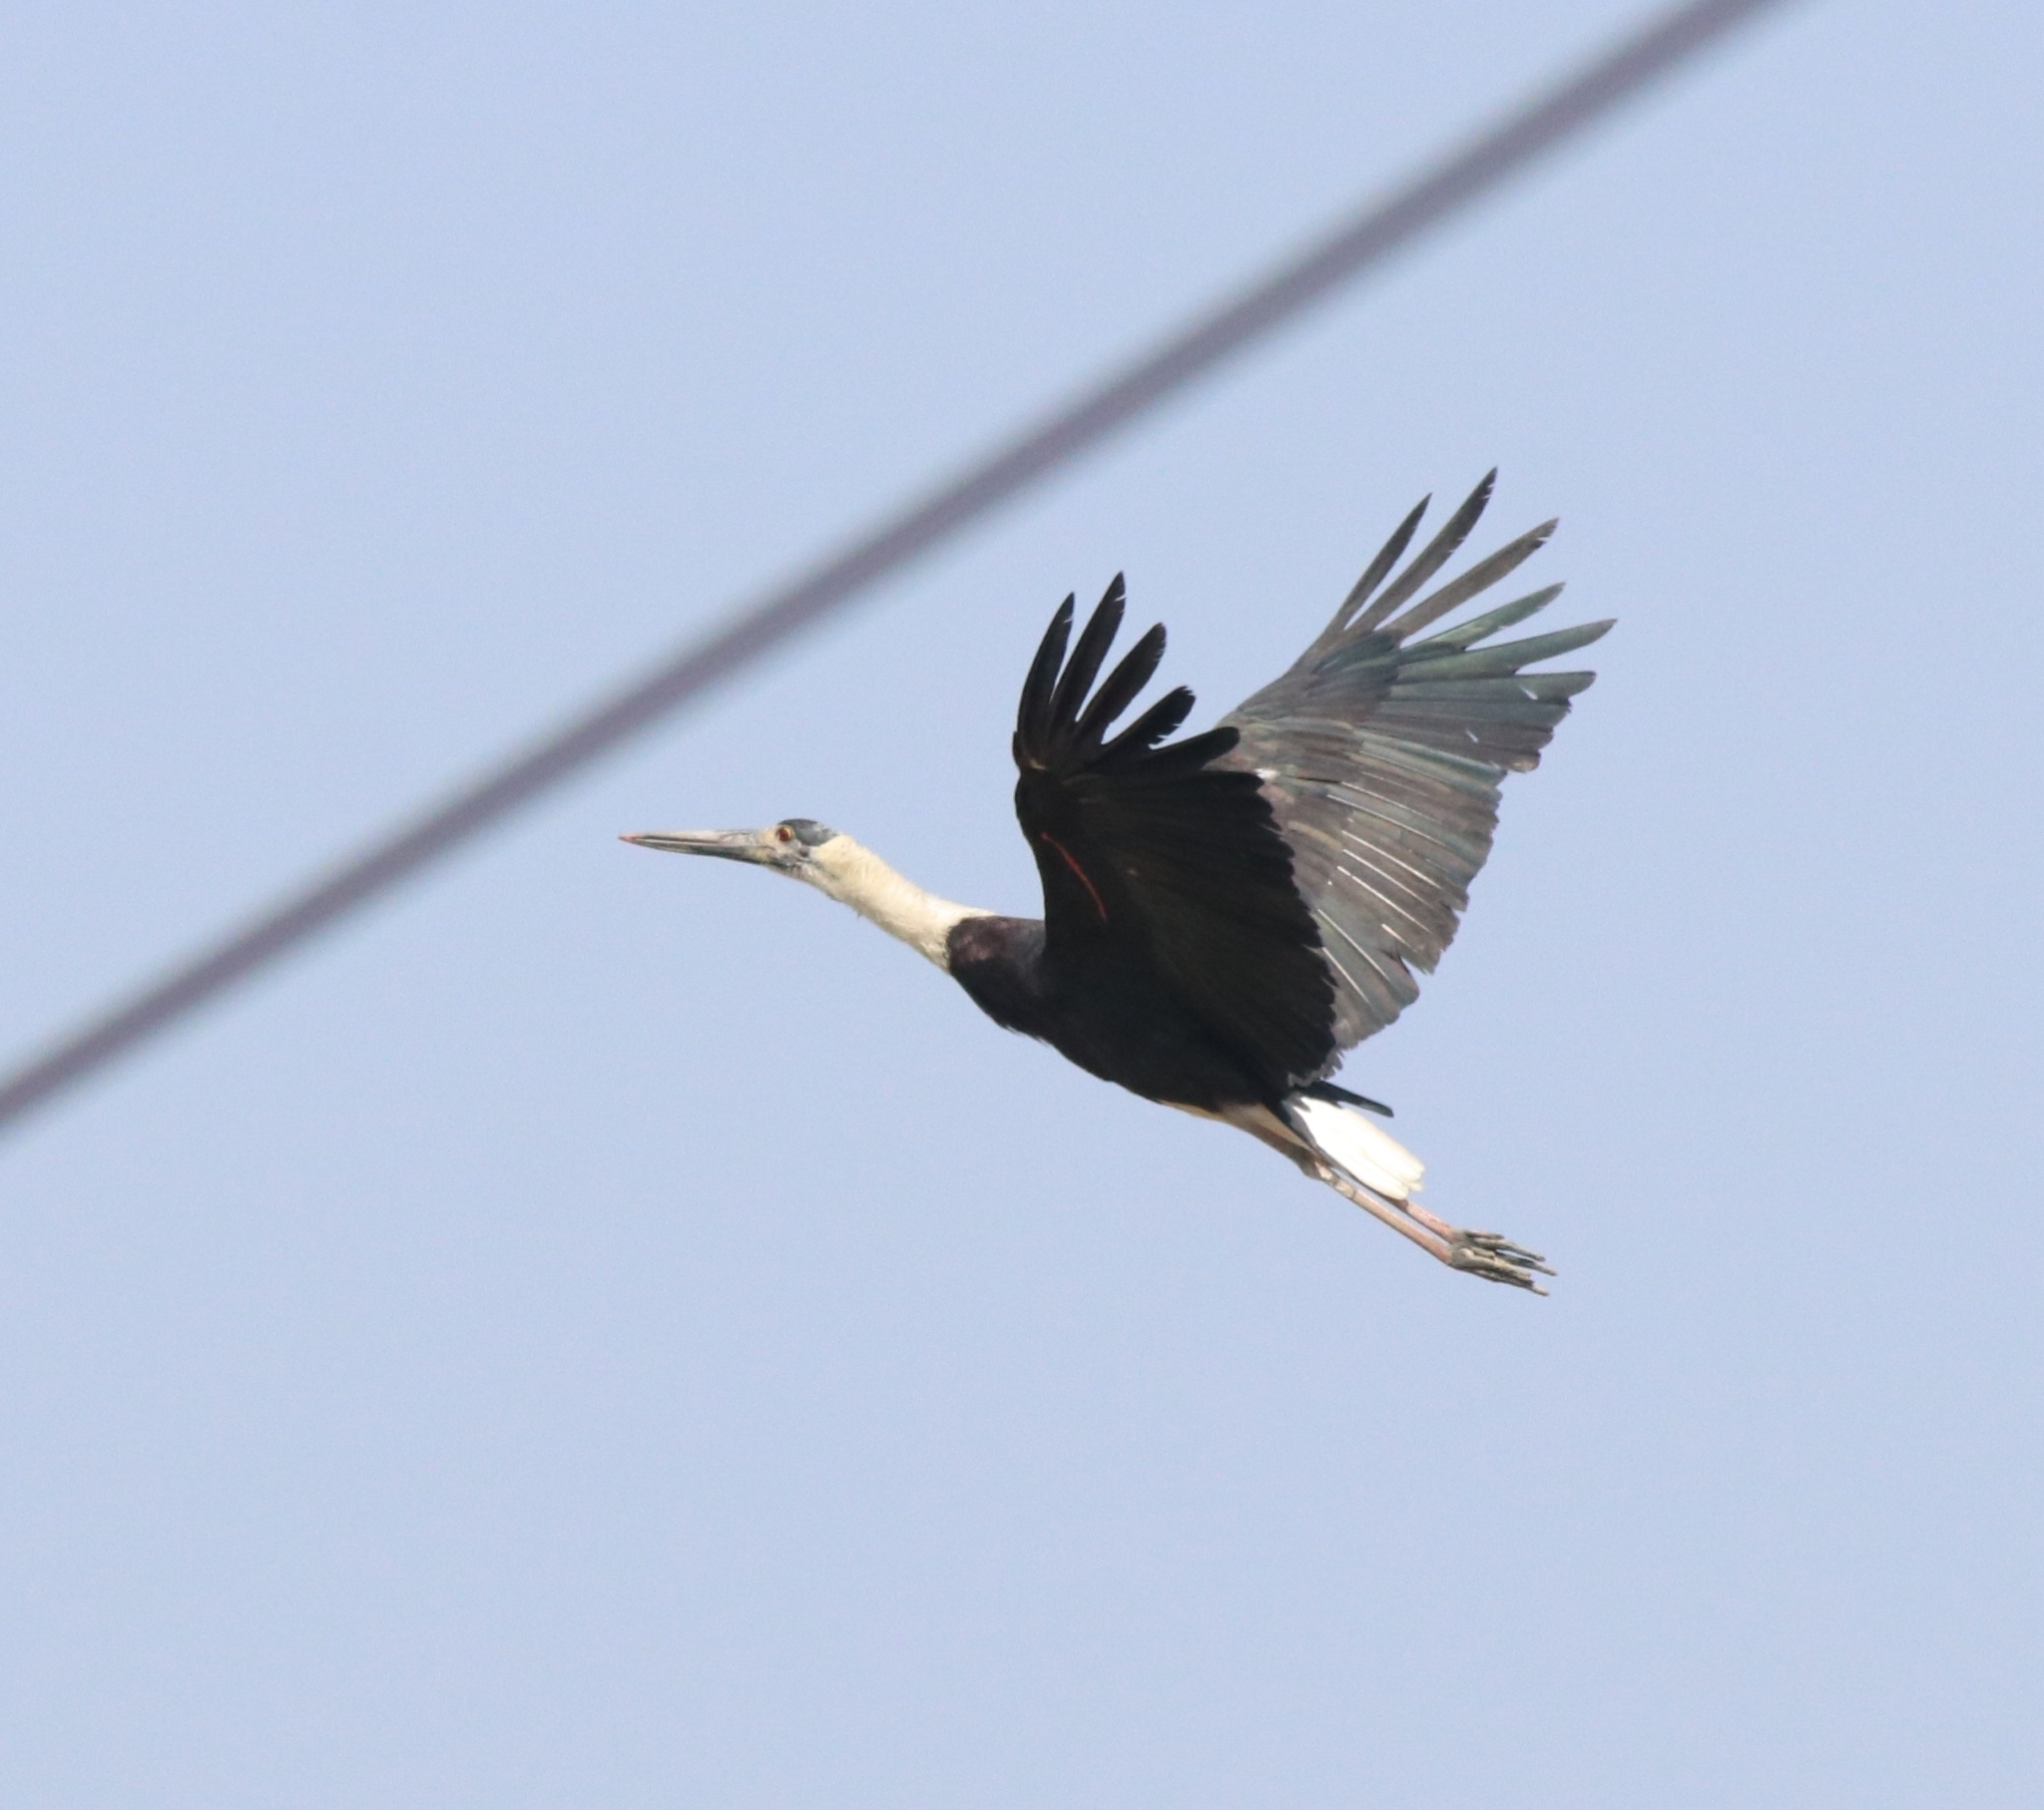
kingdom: Animalia
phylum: Chordata
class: Aves
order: Ciconiiformes
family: Ciconiidae
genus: Ciconia
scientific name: Ciconia episcopus
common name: Woolly-necked stork
